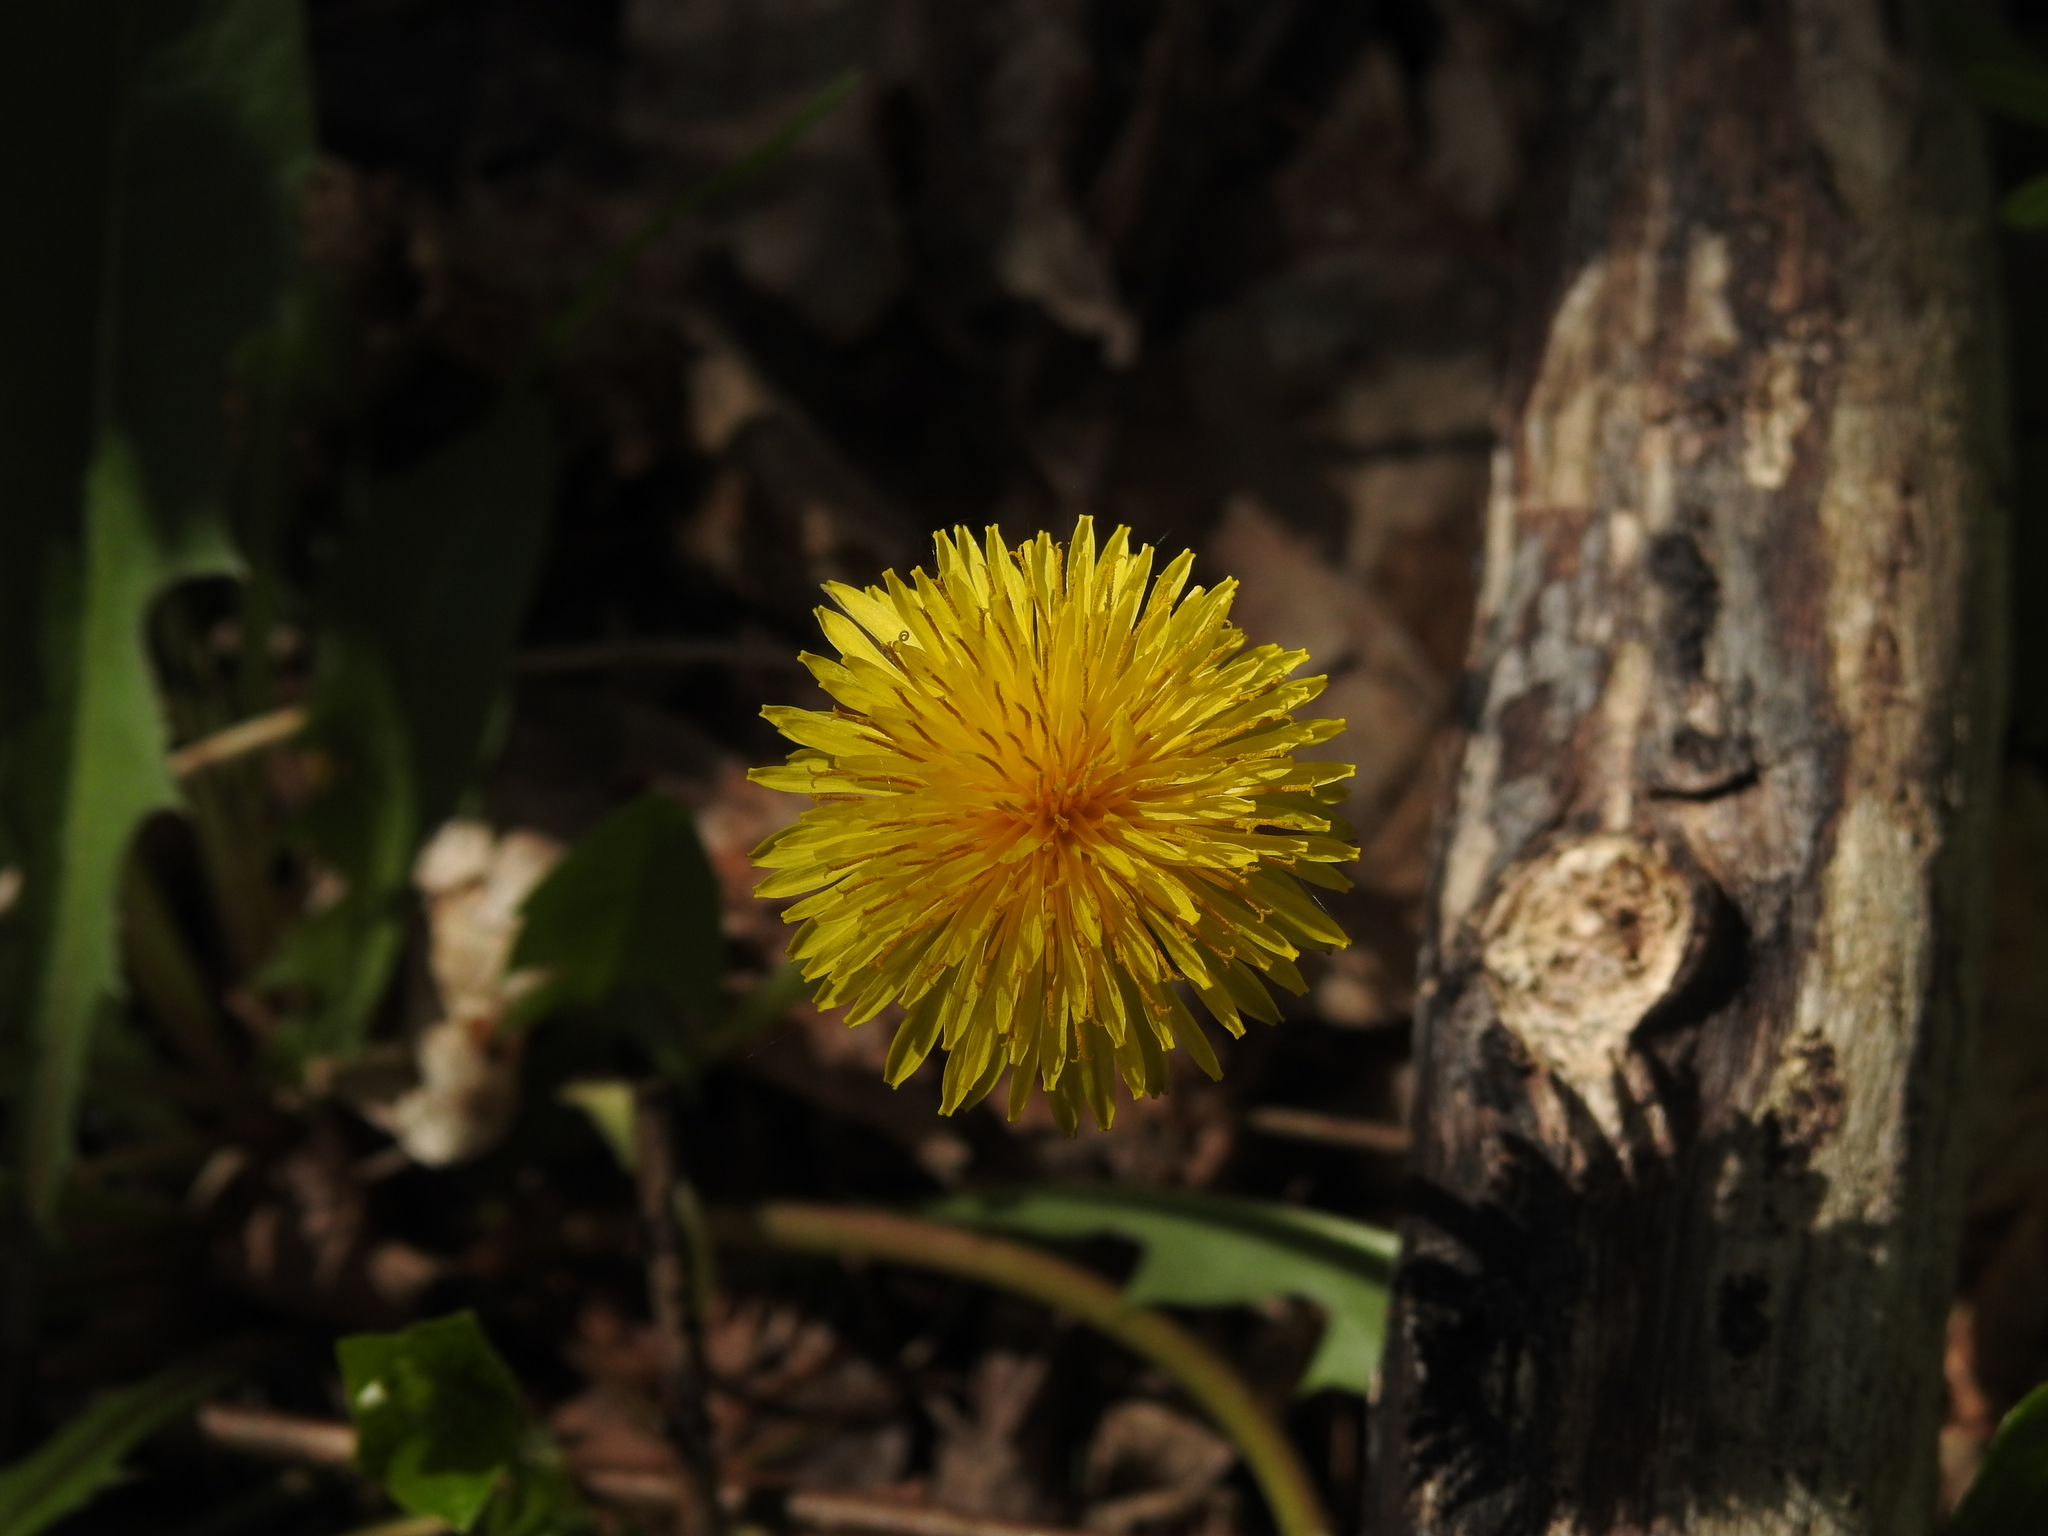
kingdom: Plantae
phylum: Tracheophyta
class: Magnoliopsida
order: Asterales
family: Asteraceae
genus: Taraxacum
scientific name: Taraxacum officinale
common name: Common dandelion
